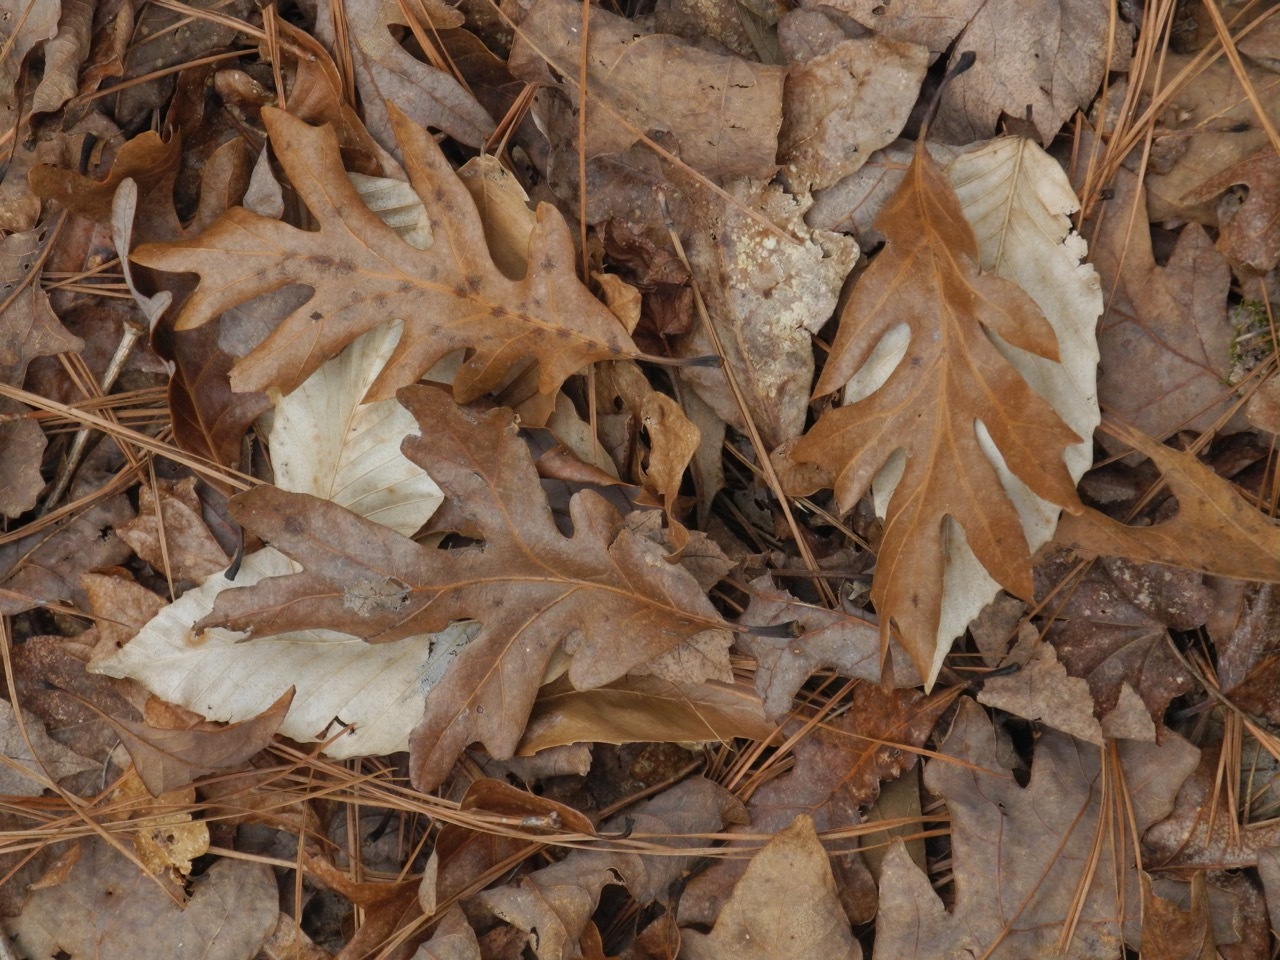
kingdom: Plantae
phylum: Tracheophyta
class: Magnoliopsida
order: Fagales
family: Fagaceae
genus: Quercus
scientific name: Quercus alba
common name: White oak
